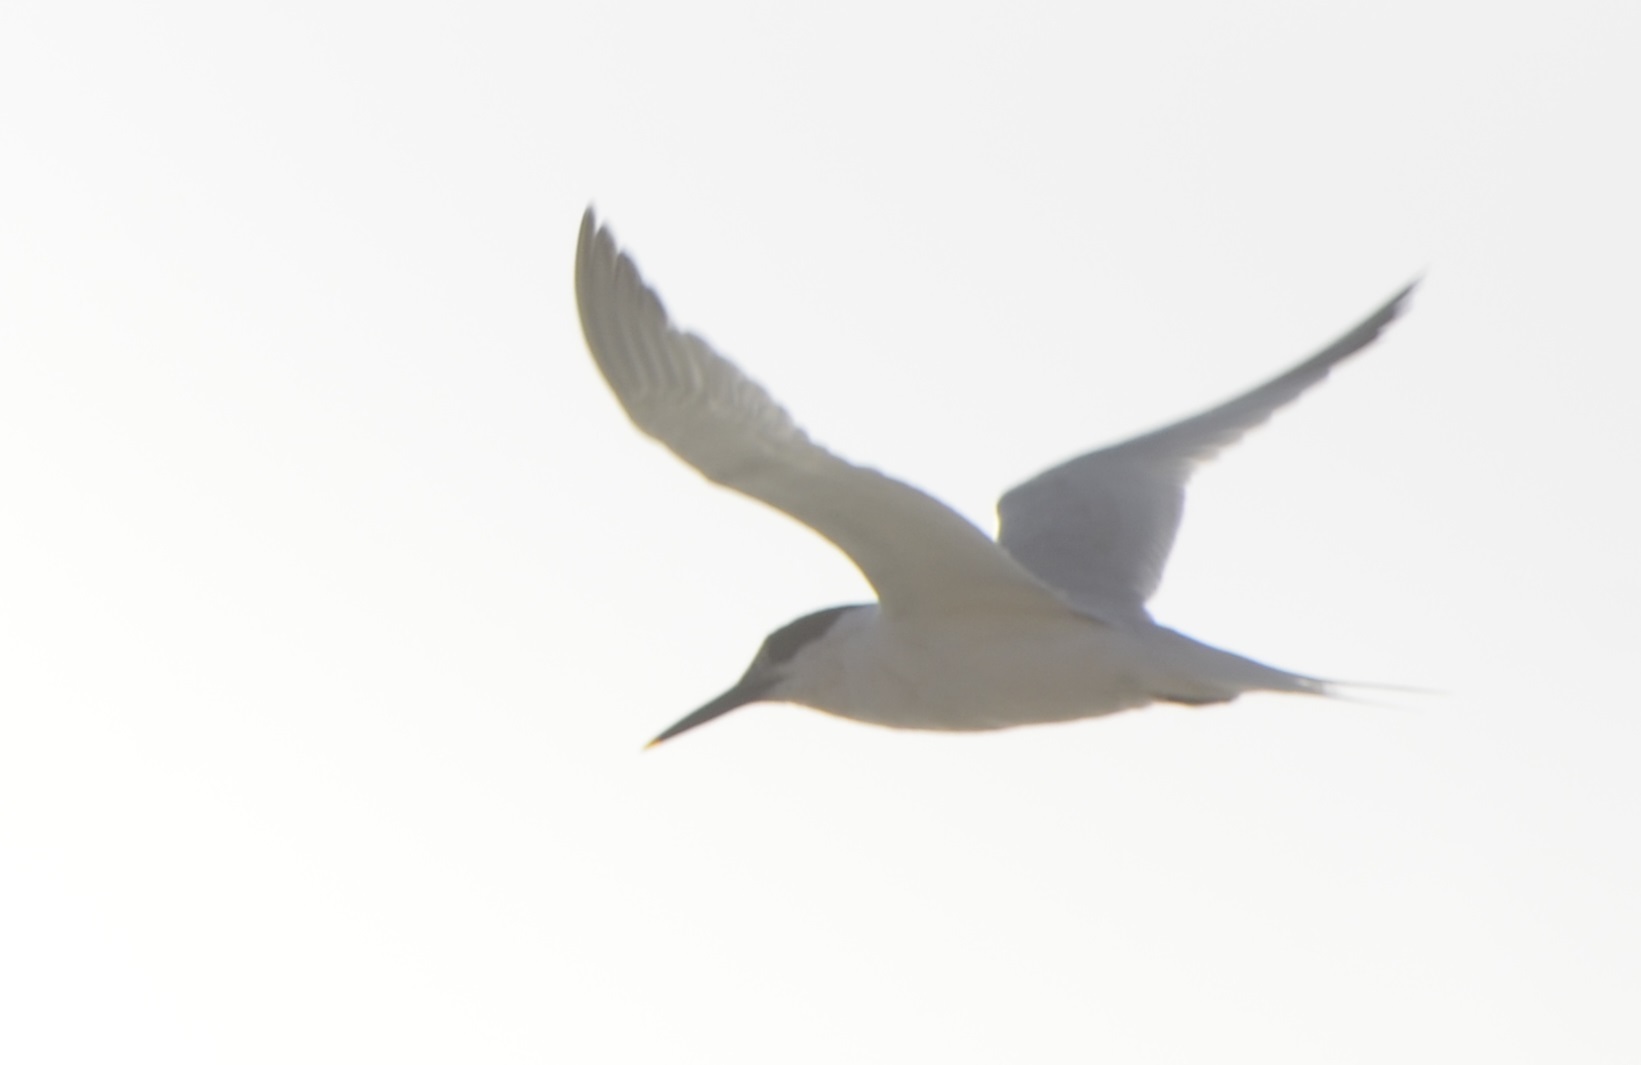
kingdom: Animalia
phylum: Chordata
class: Aves
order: Charadriiformes
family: Laridae
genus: Thalasseus
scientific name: Thalasseus sandvicensis
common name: Sandwich tern
